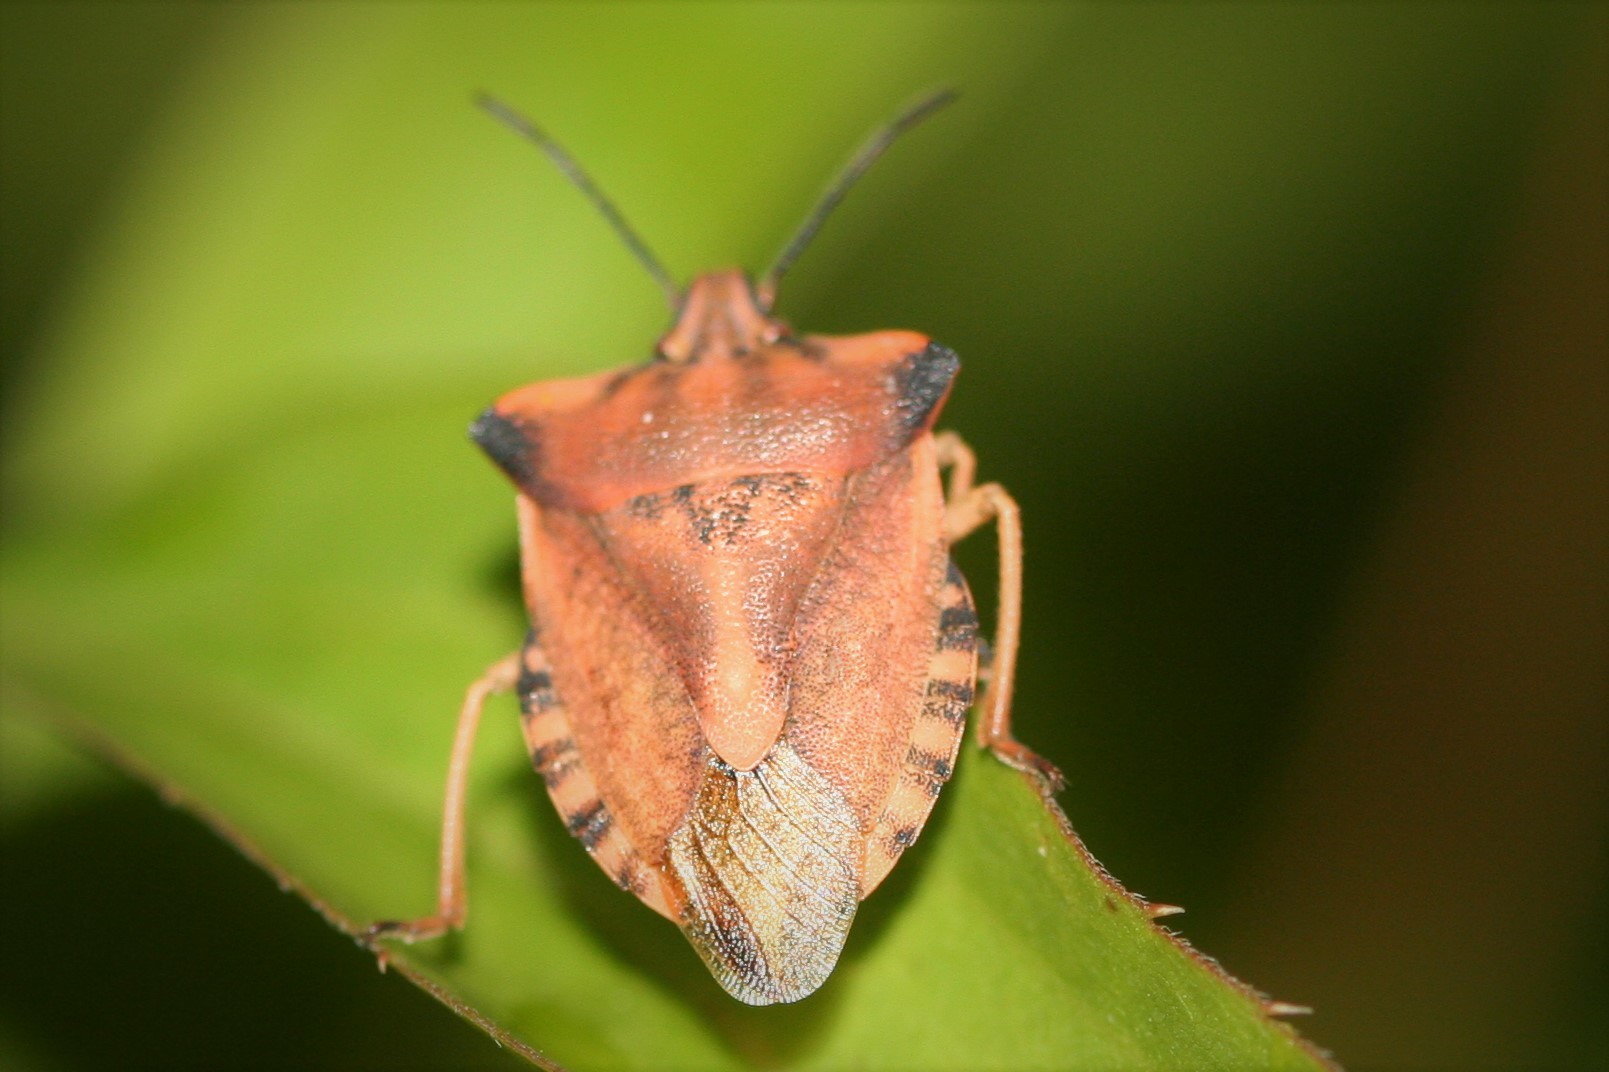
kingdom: Animalia
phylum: Arthropoda
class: Insecta
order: Hemiptera
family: Pentatomidae
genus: Carpocoris
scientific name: Carpocoris fuscispinus
